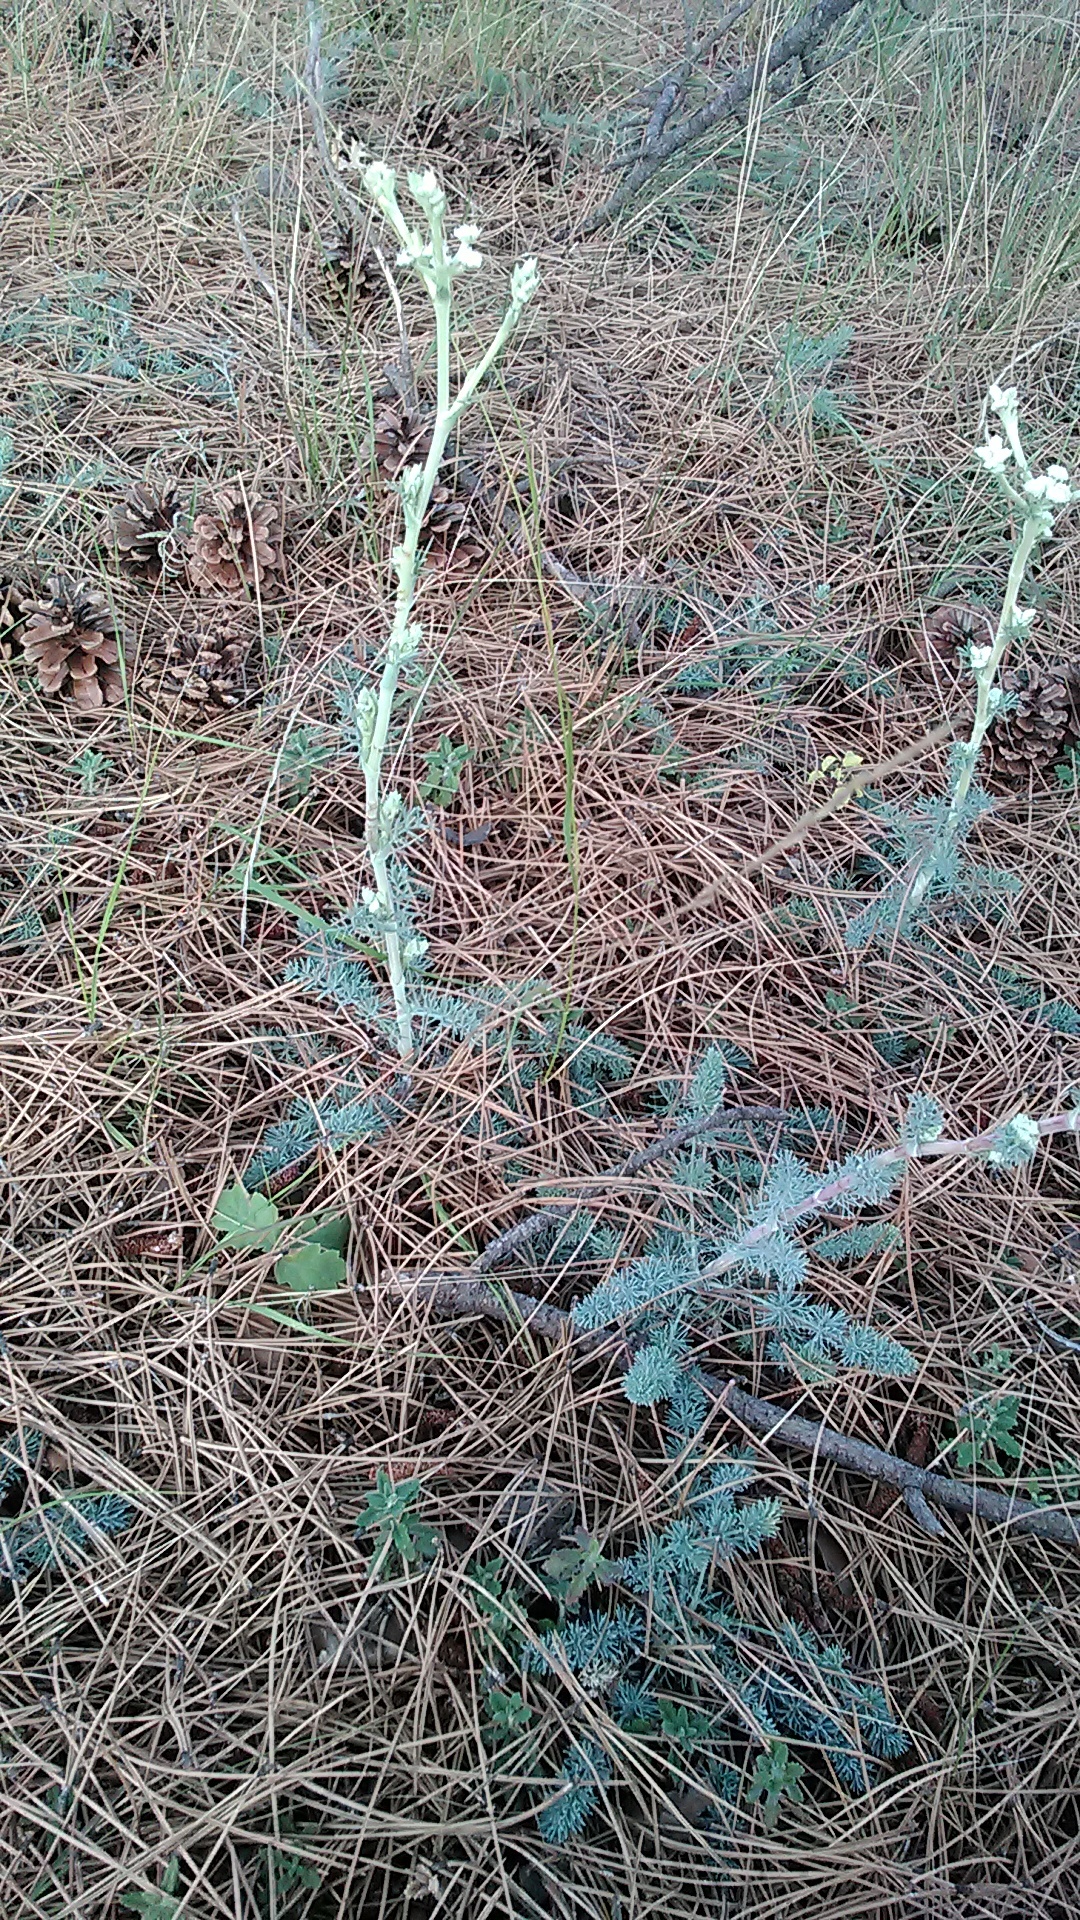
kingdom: Plantae
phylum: Tracheophyta
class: Magnoliopsida
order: Apiales
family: Apiaceae
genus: Seseli
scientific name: Seseli dichotomum
